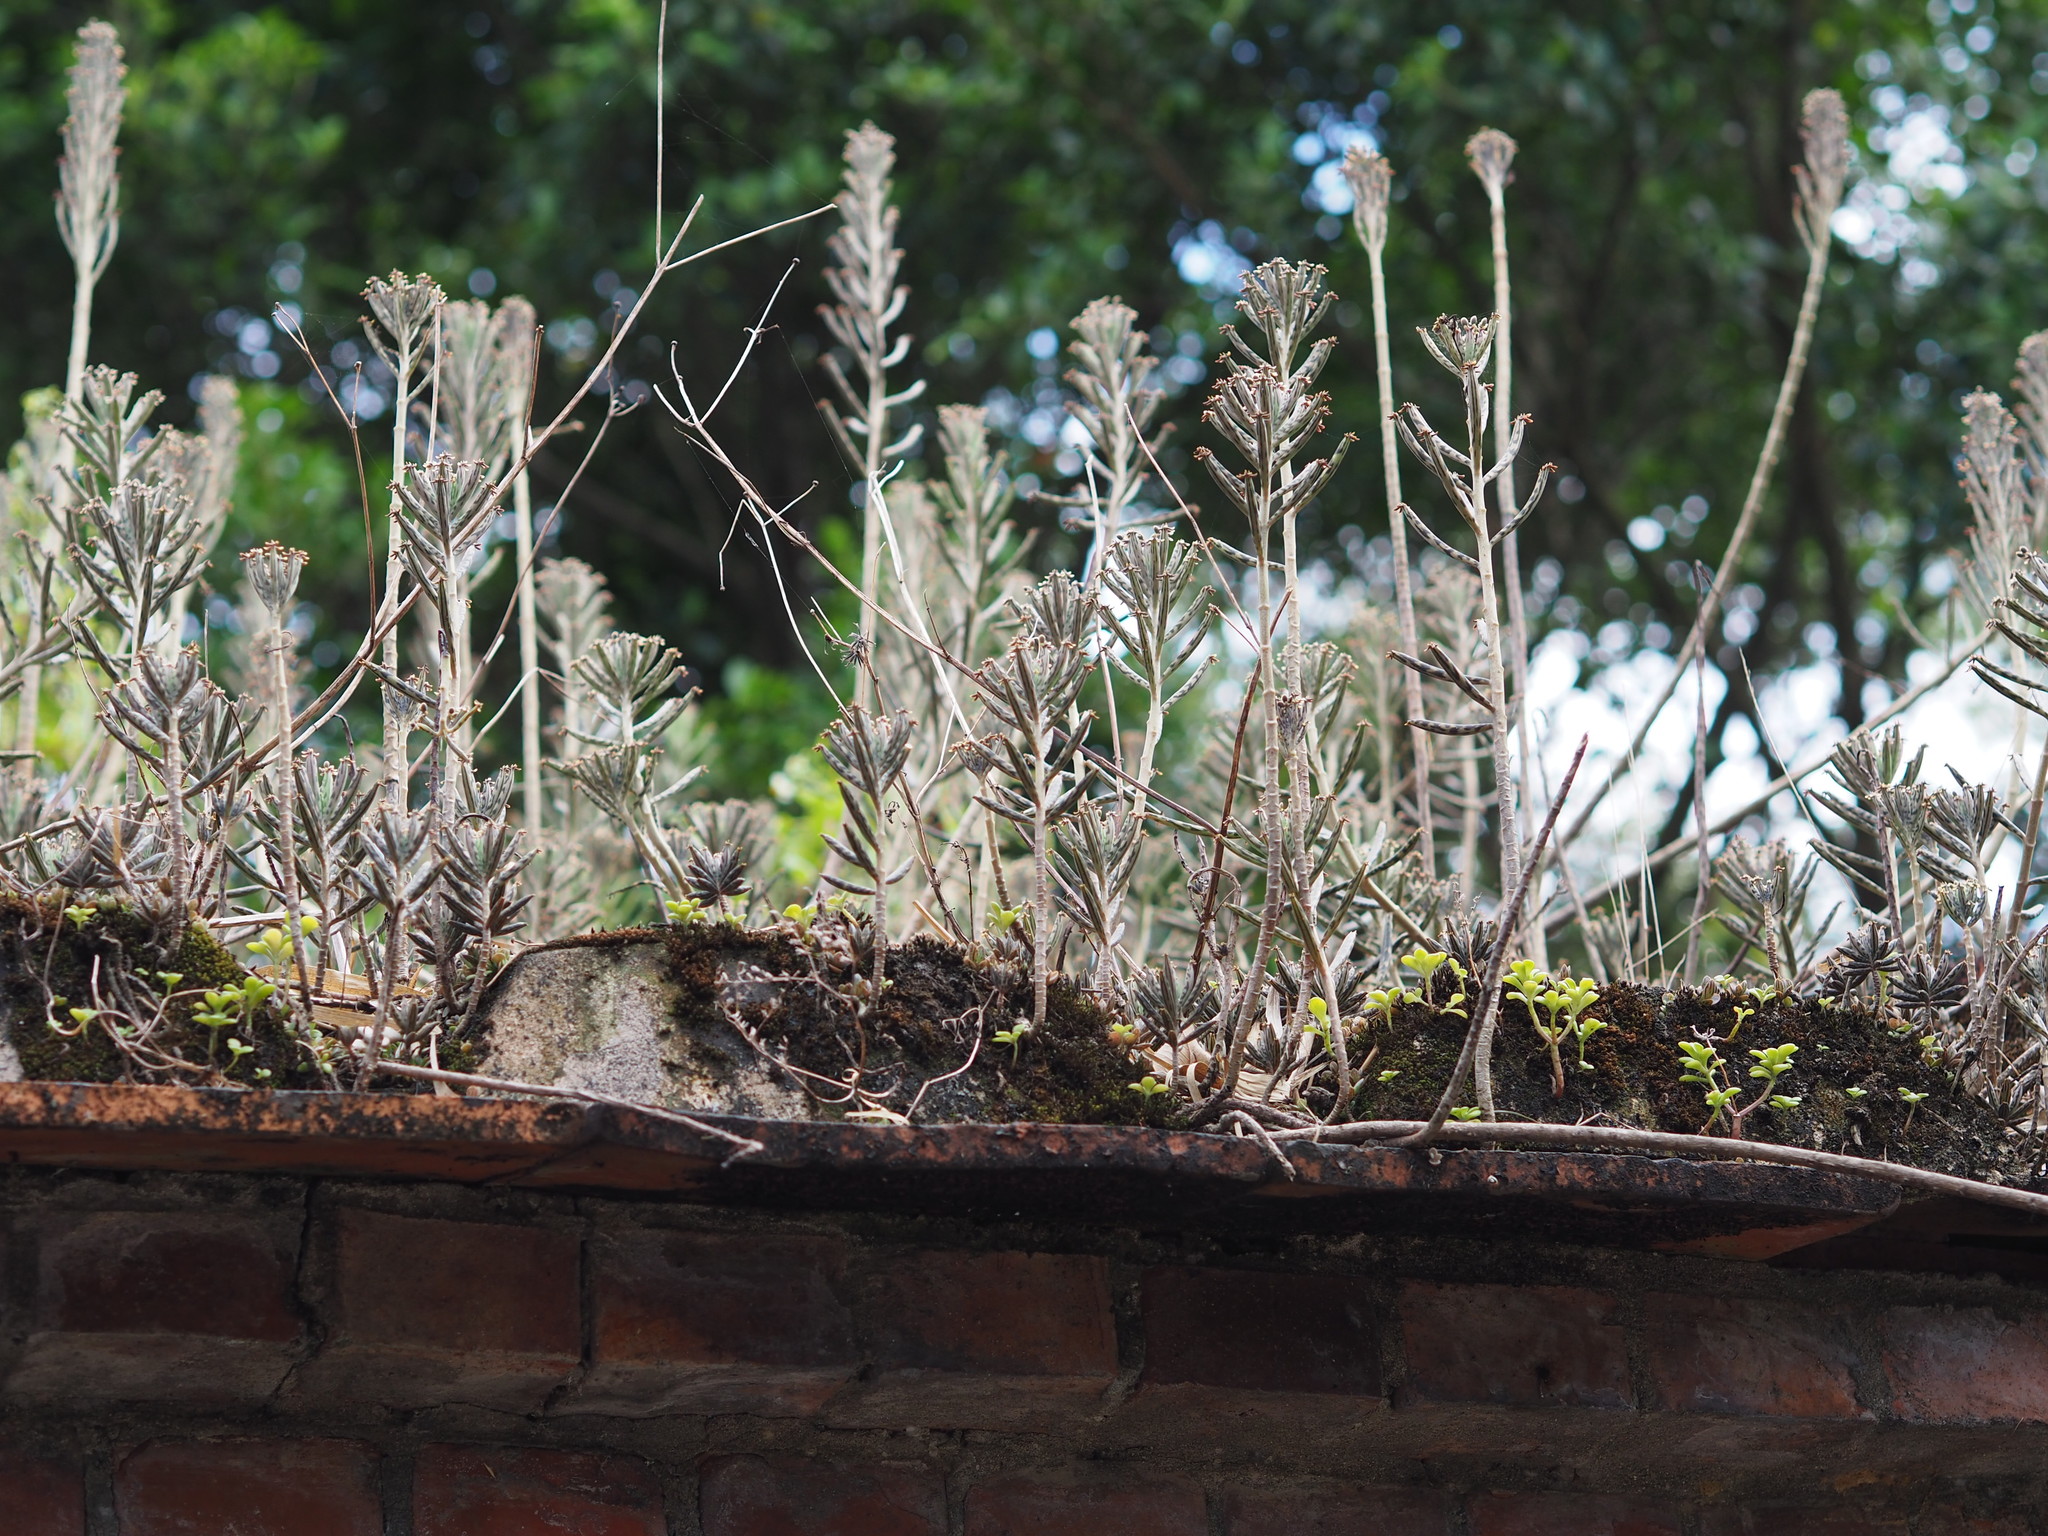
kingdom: Plantae
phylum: Tracheophyta
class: Magnoliopsida
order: Saxifragales
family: Crassulaceae
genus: Kalanchoe
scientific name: Kalanchoe delagoensis
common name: Chandelier plant
